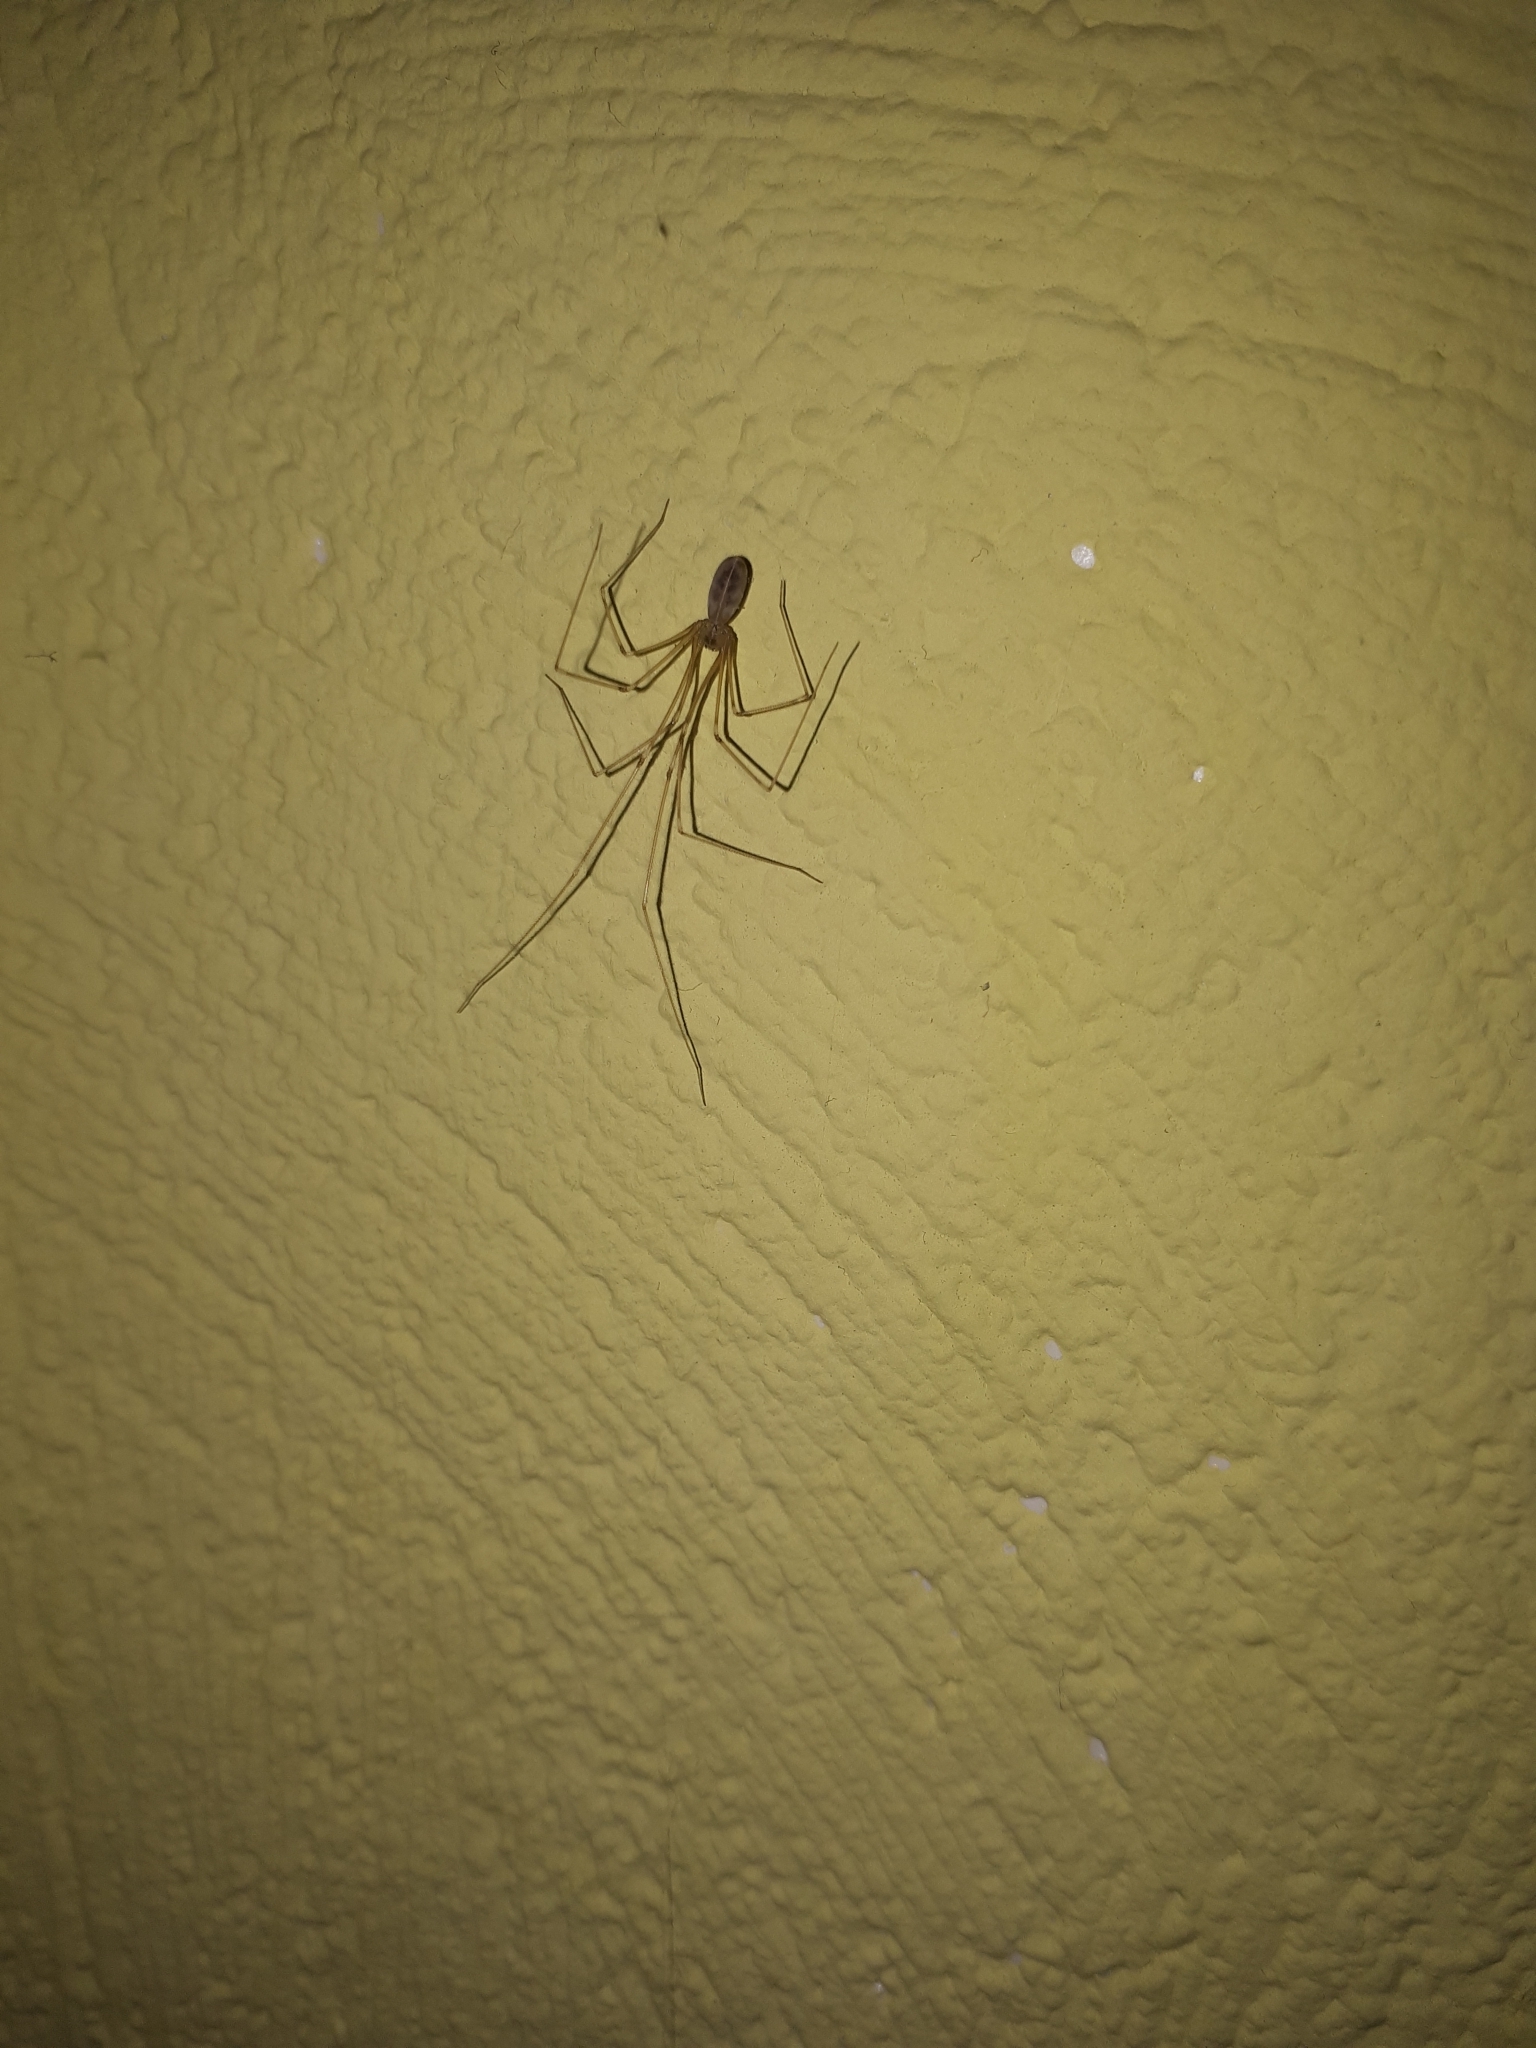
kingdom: Animalia
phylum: Arthropoda
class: Arachnida
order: Araneae
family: Pholcidae
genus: Pholcus
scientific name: Pholcus phalangioides
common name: Longbodied cellar spider
